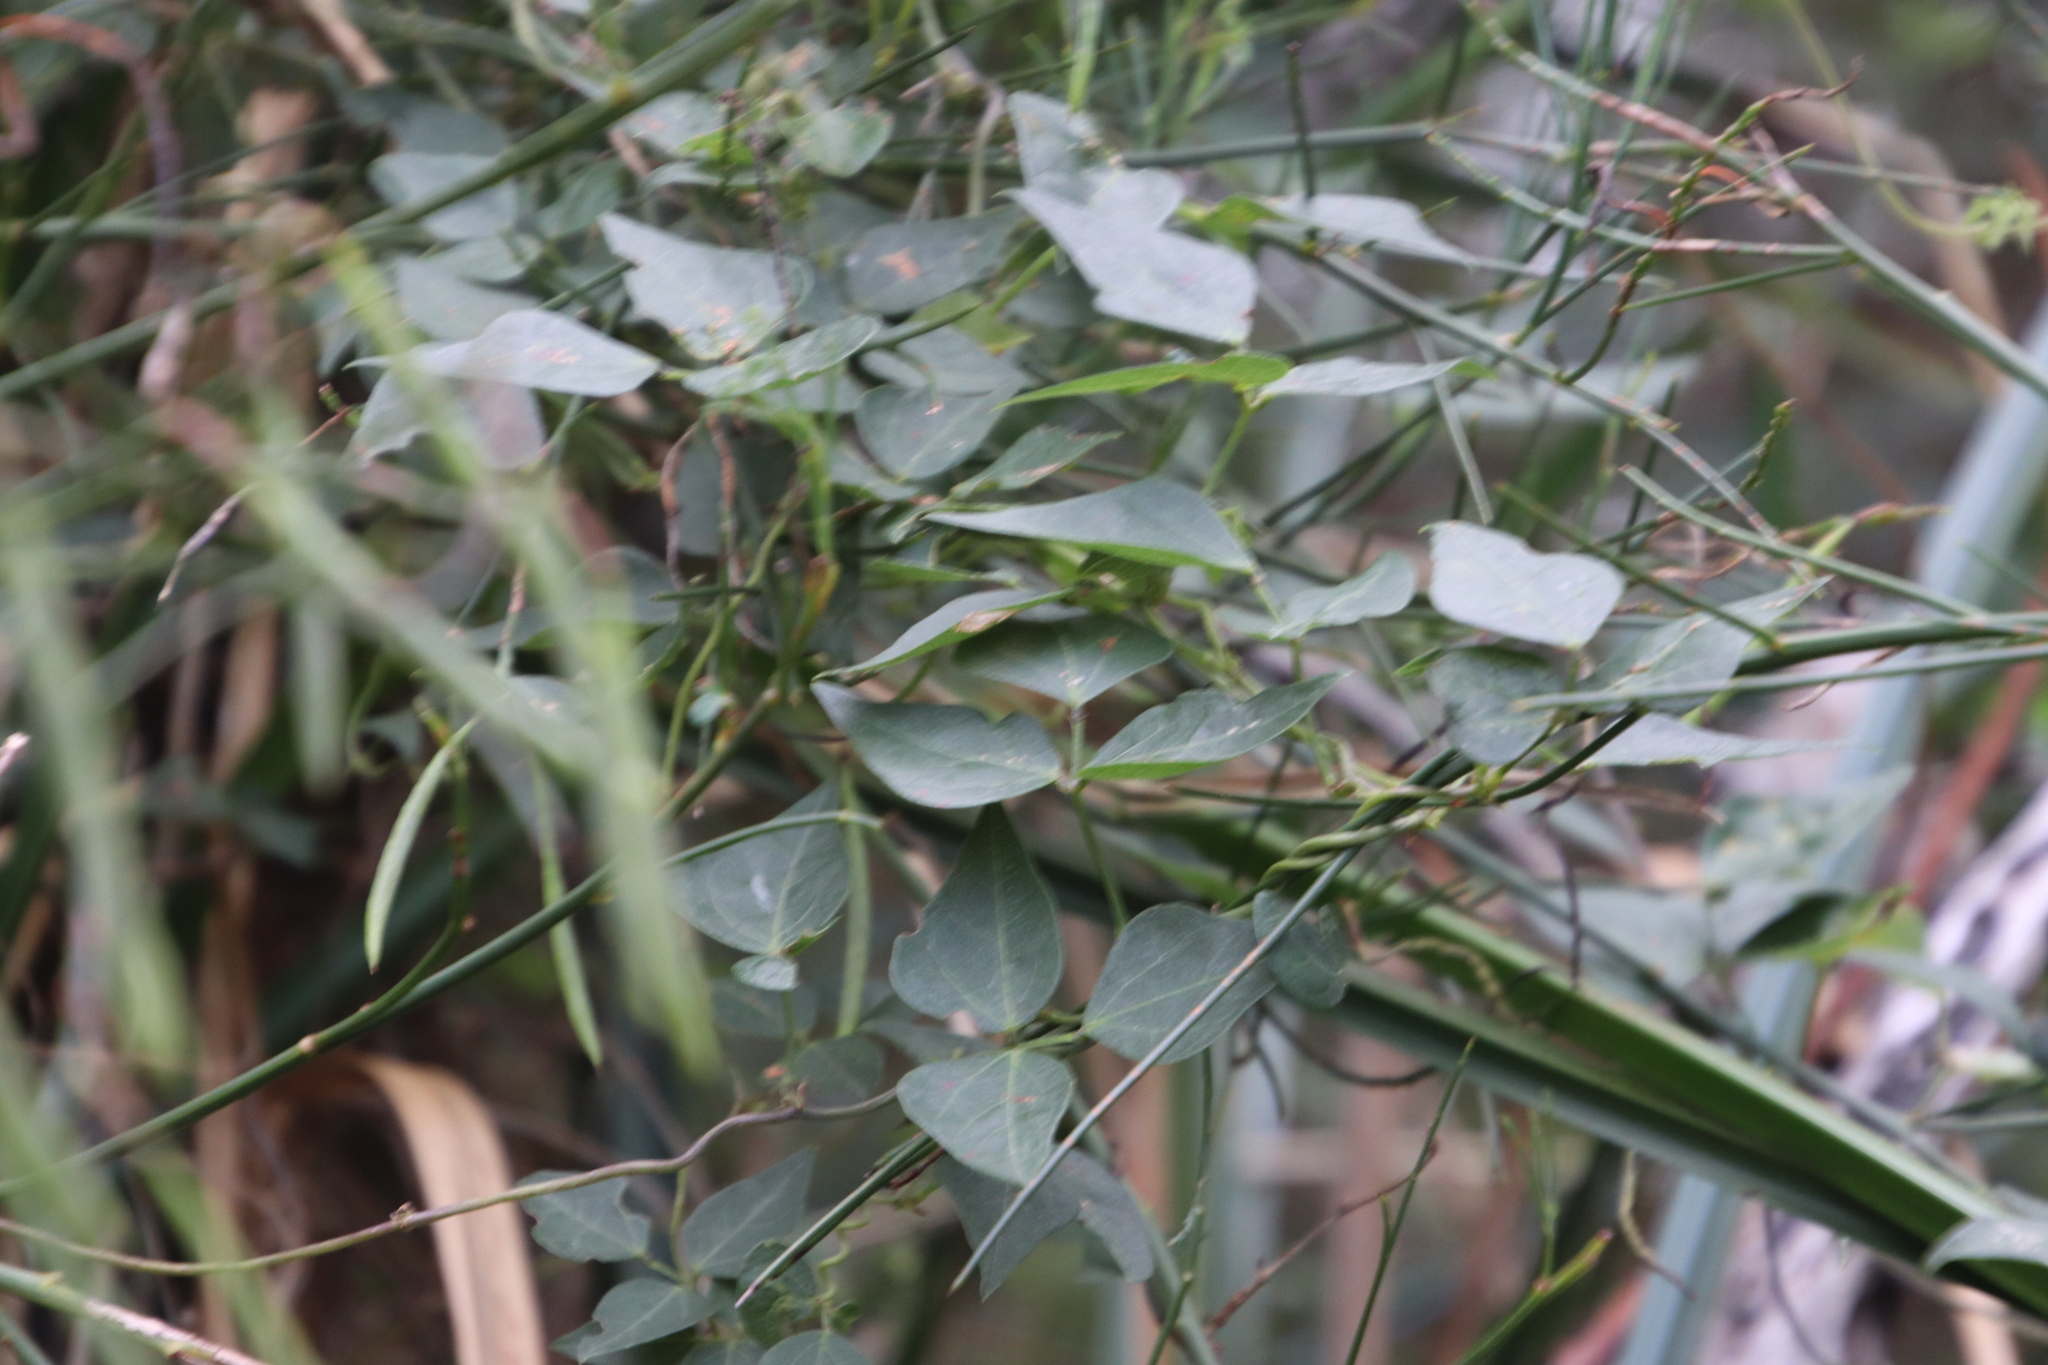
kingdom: Plantae
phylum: Tracheophyta
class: Magnoliopsida
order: Fabales
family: Fabaceae
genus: Dipogon
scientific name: Dipogon lignosus
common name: Okie bean
